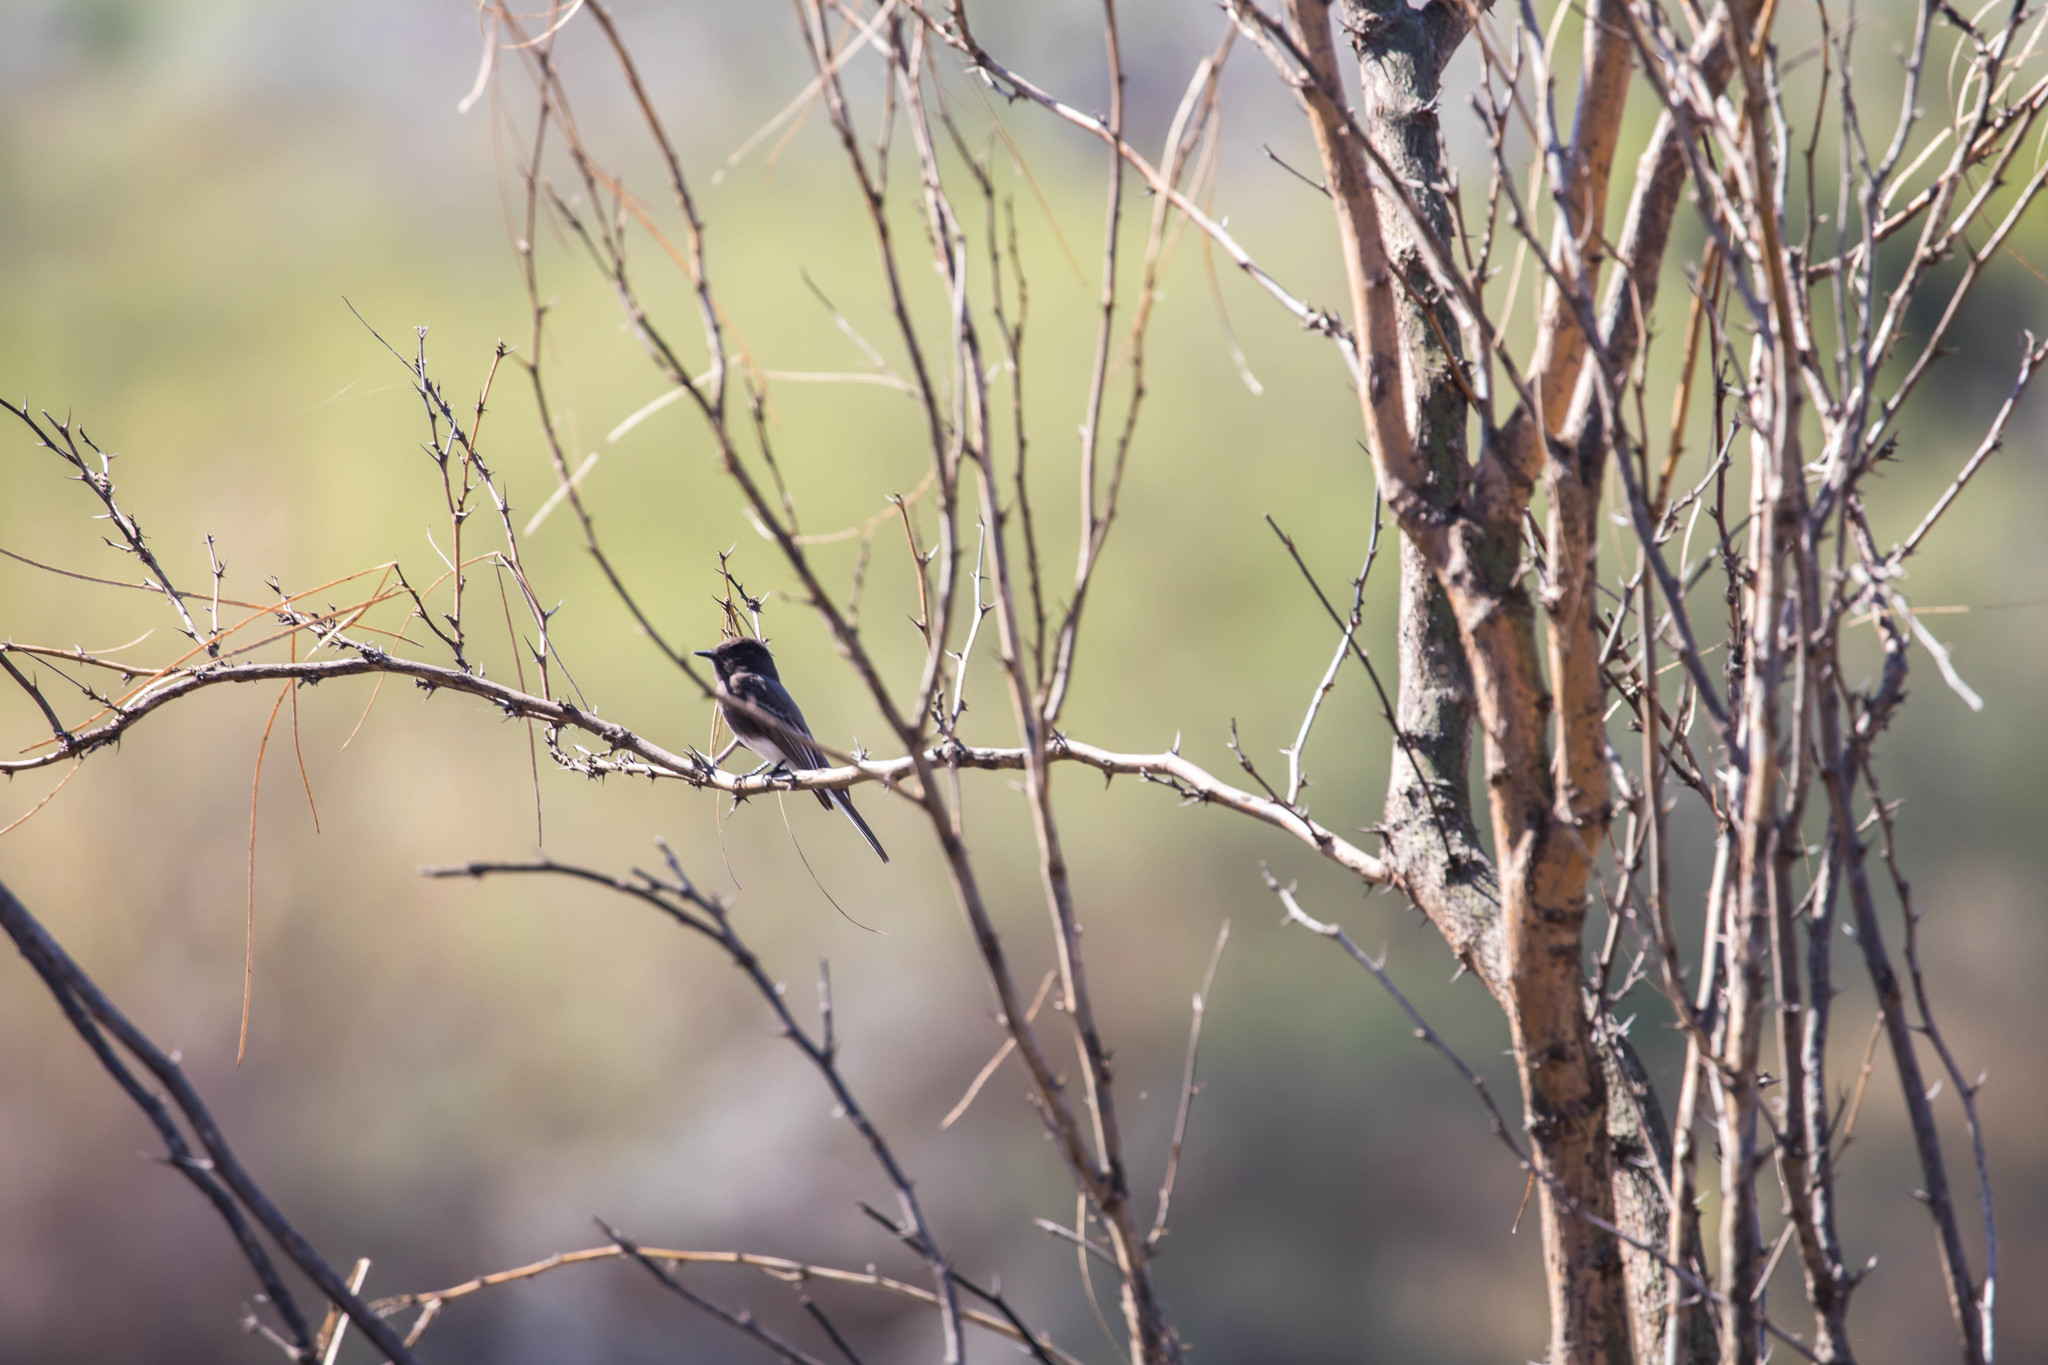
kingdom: Animalia
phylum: Chordata
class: Aves
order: Passeriformes
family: Tyrannidae
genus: Sayornis
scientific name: Sayornis nigricans
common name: Black phoebe
